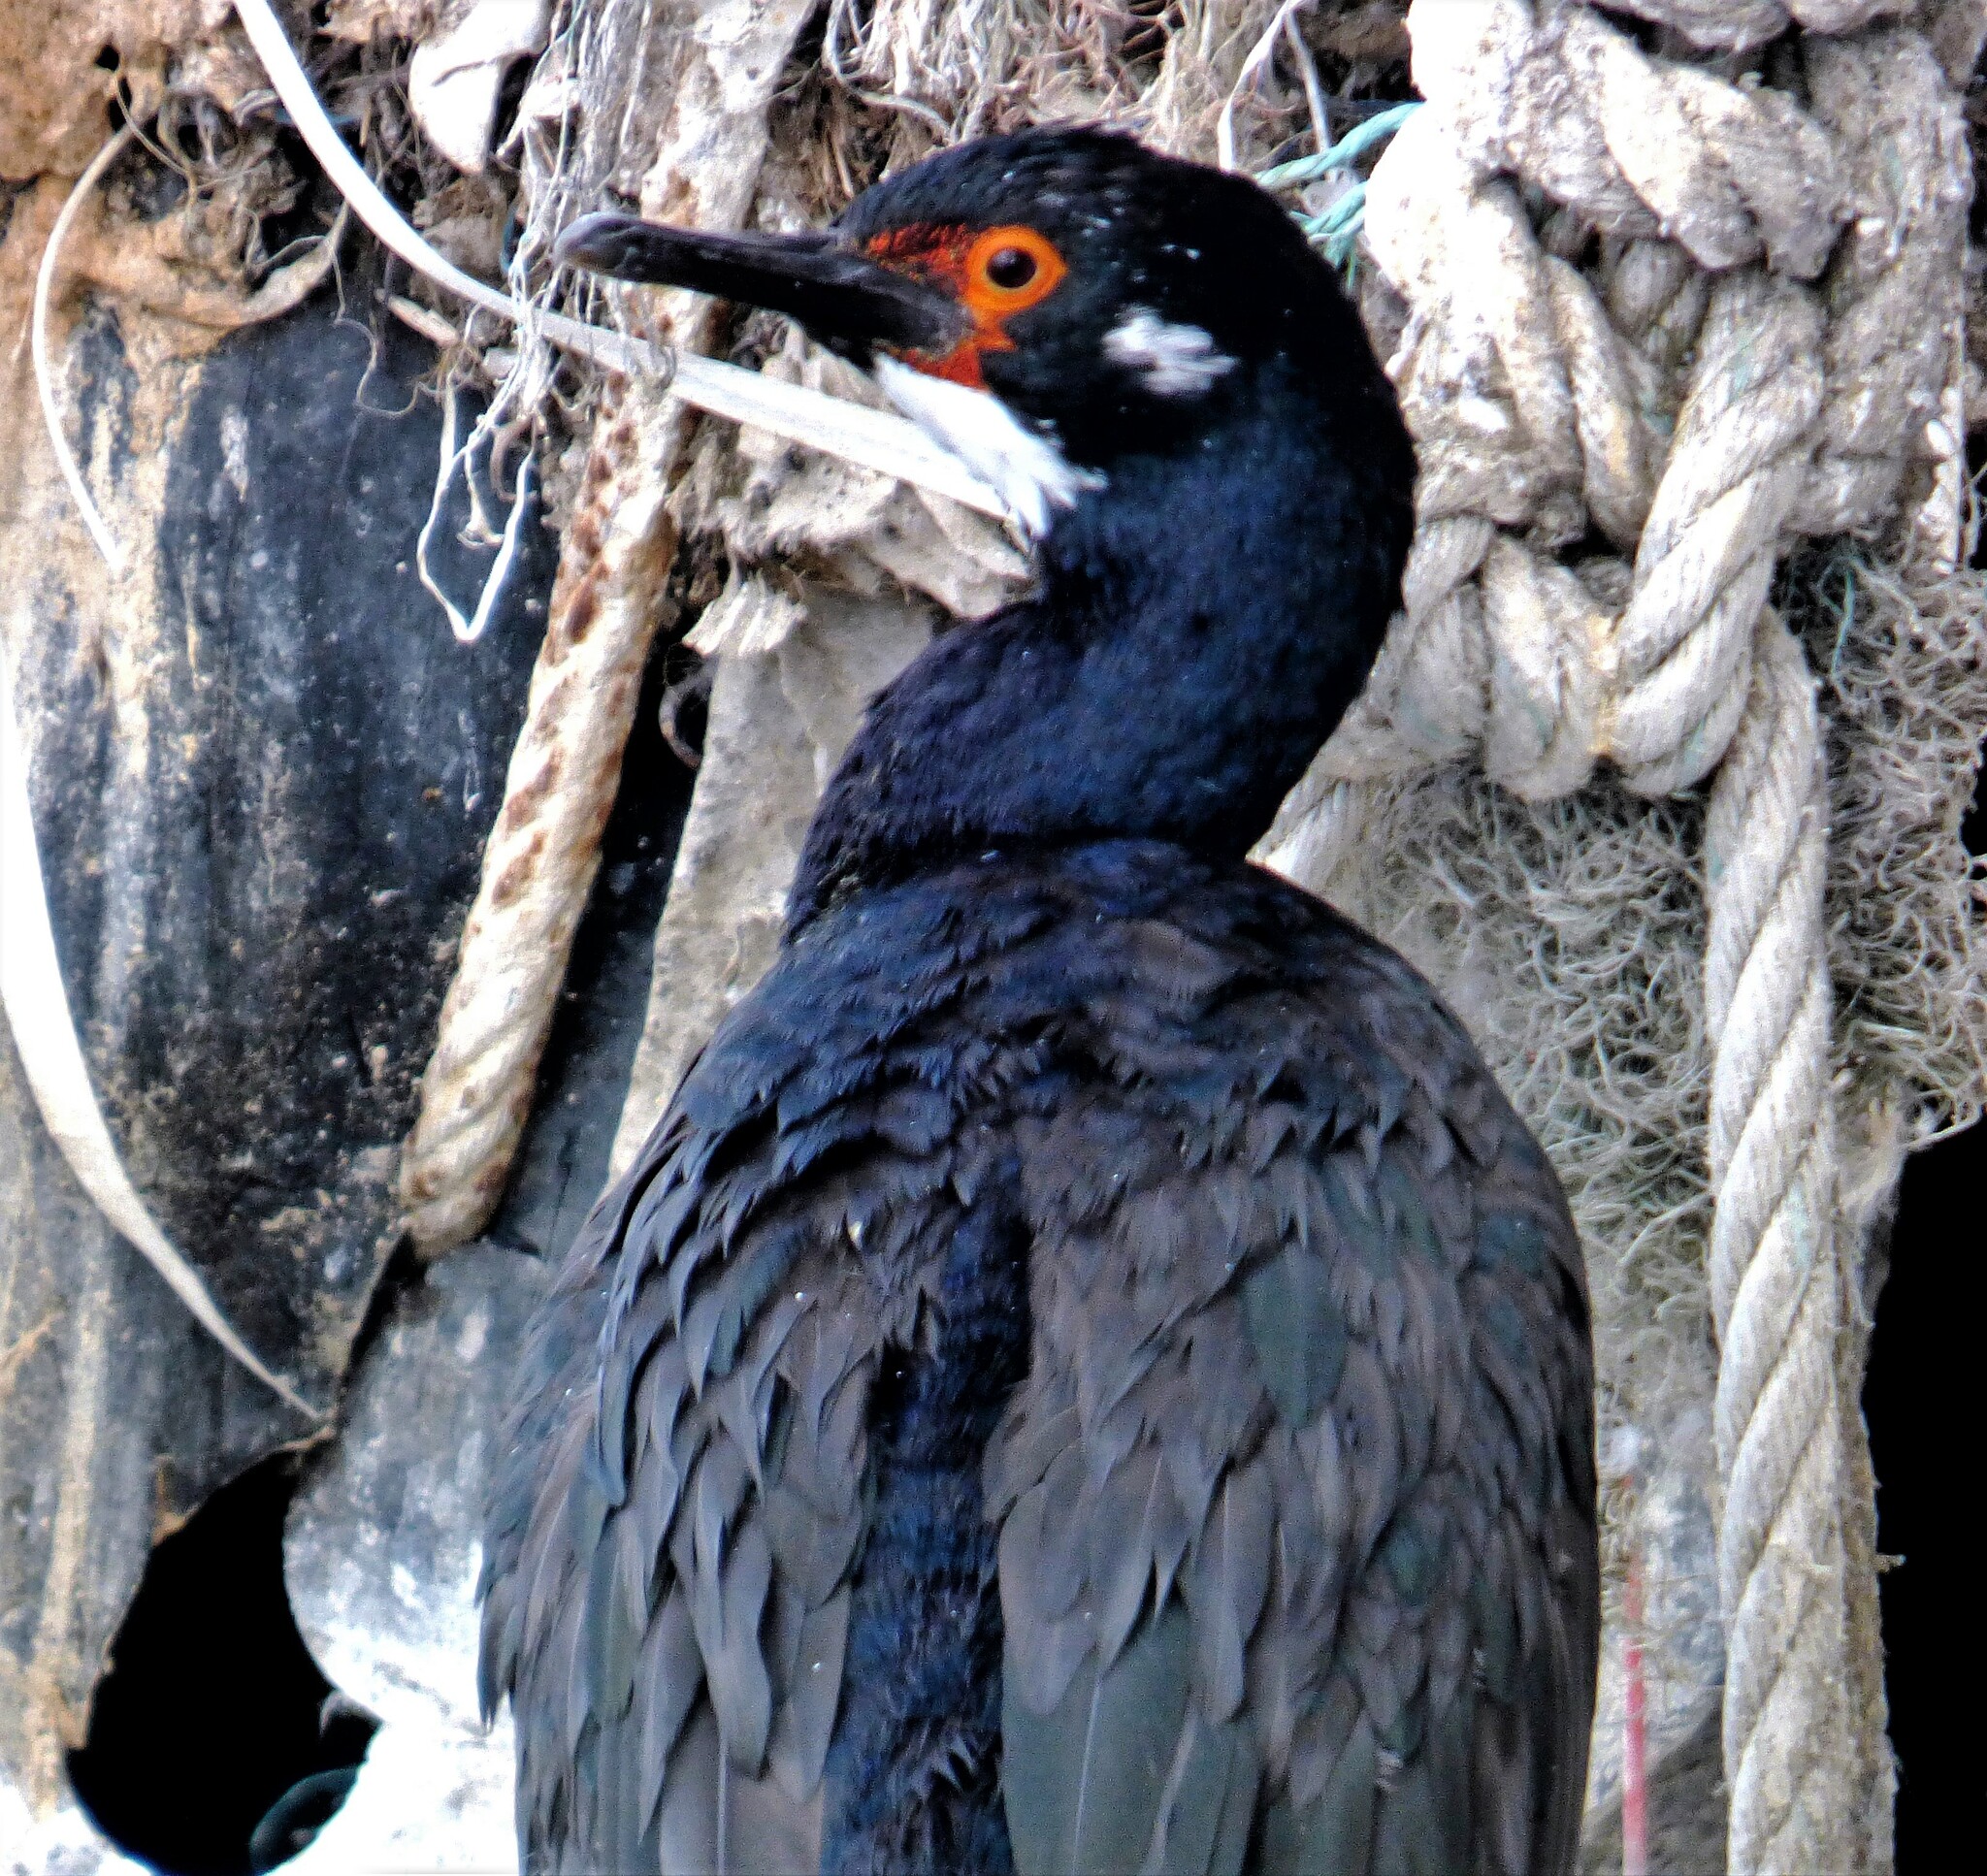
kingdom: Animalia
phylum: Chordata
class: Aves
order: Suliformes
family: Phalacrocoracidae
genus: Phalacrocorax
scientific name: Phalacrocorax magellanicus
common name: Rock shag
